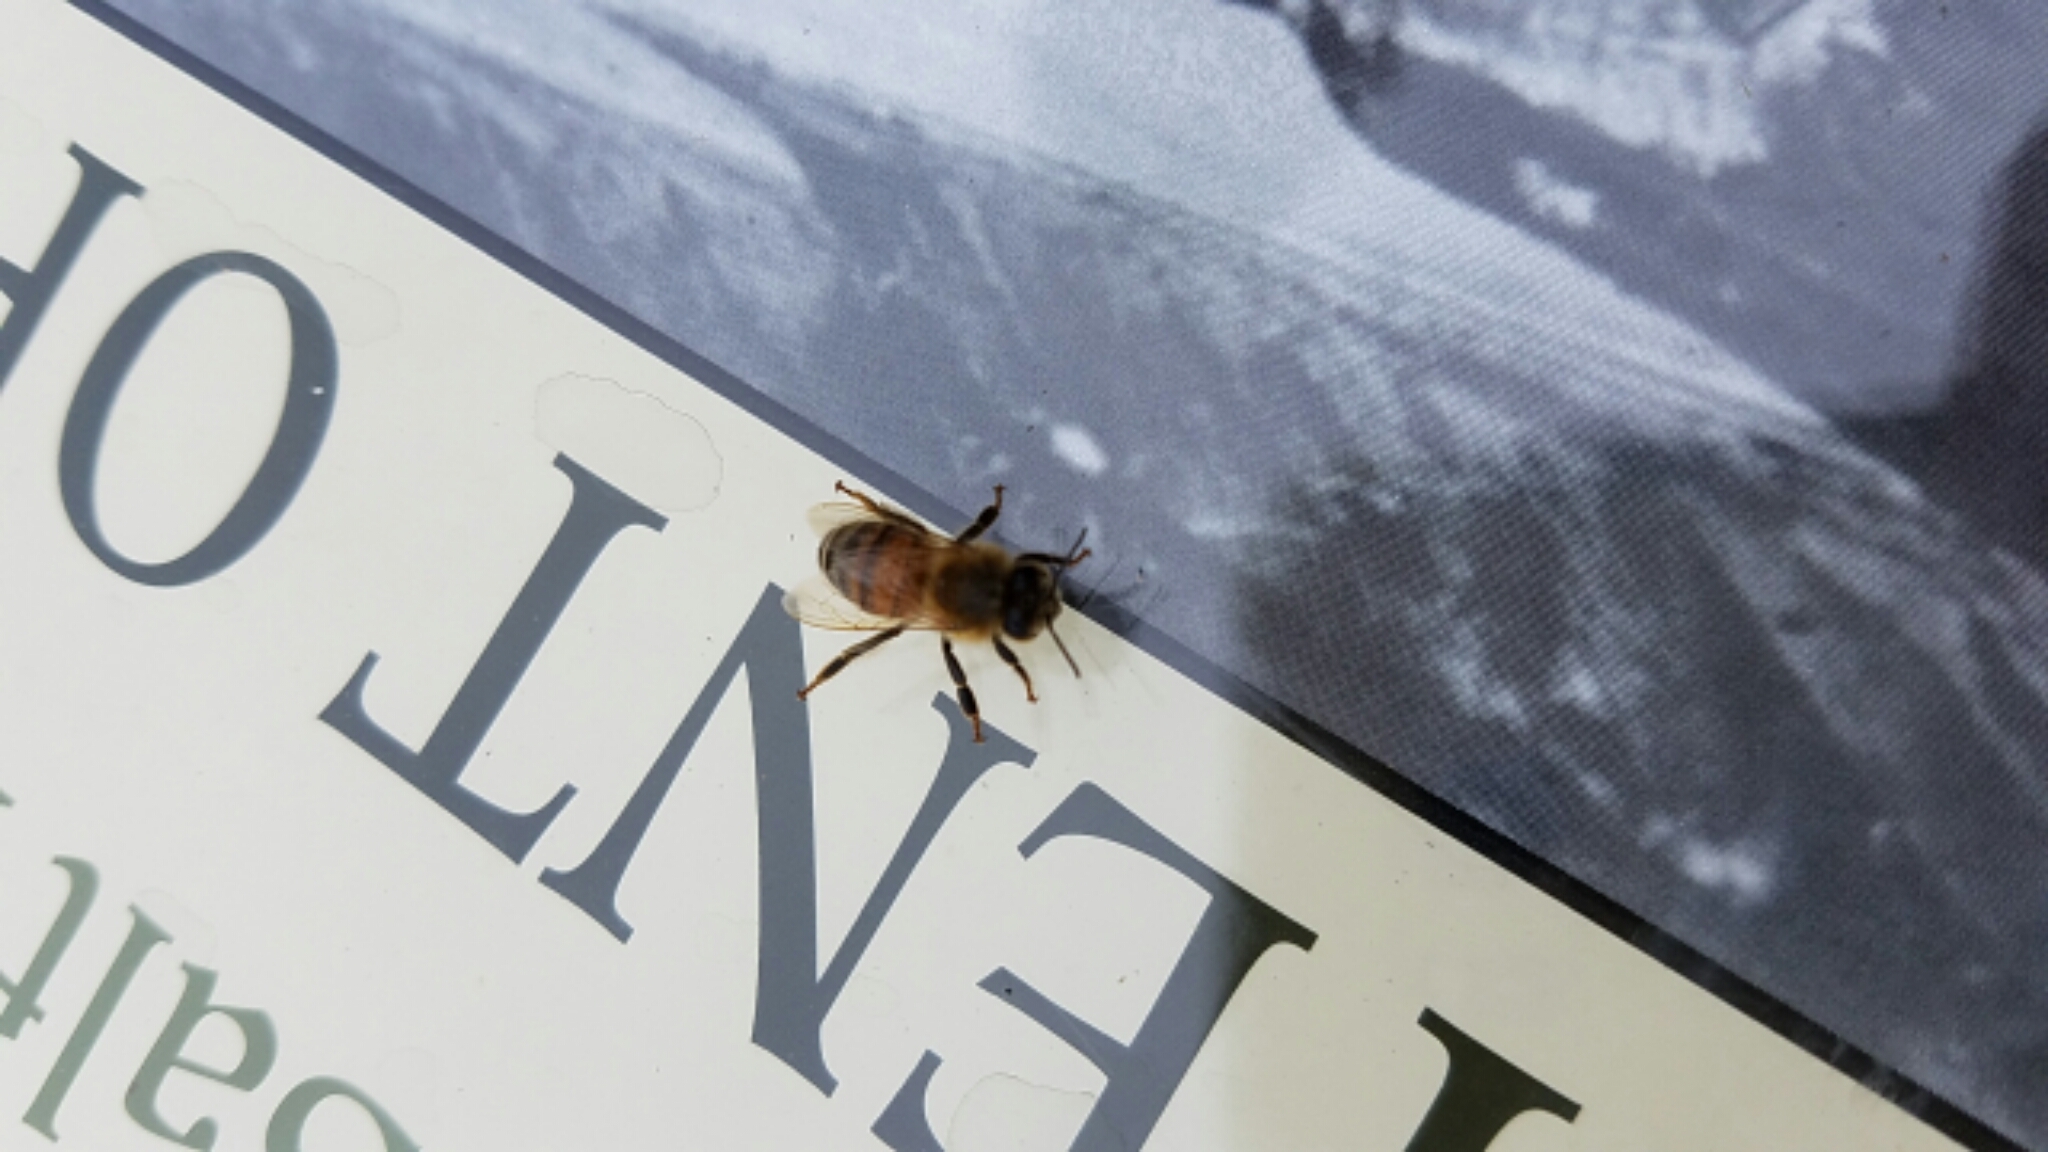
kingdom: Animalia
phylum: Arthropoda
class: Insecta
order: Hymenoptera
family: Apidae
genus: Apis
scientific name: Apis mellifera
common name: Honey bee
